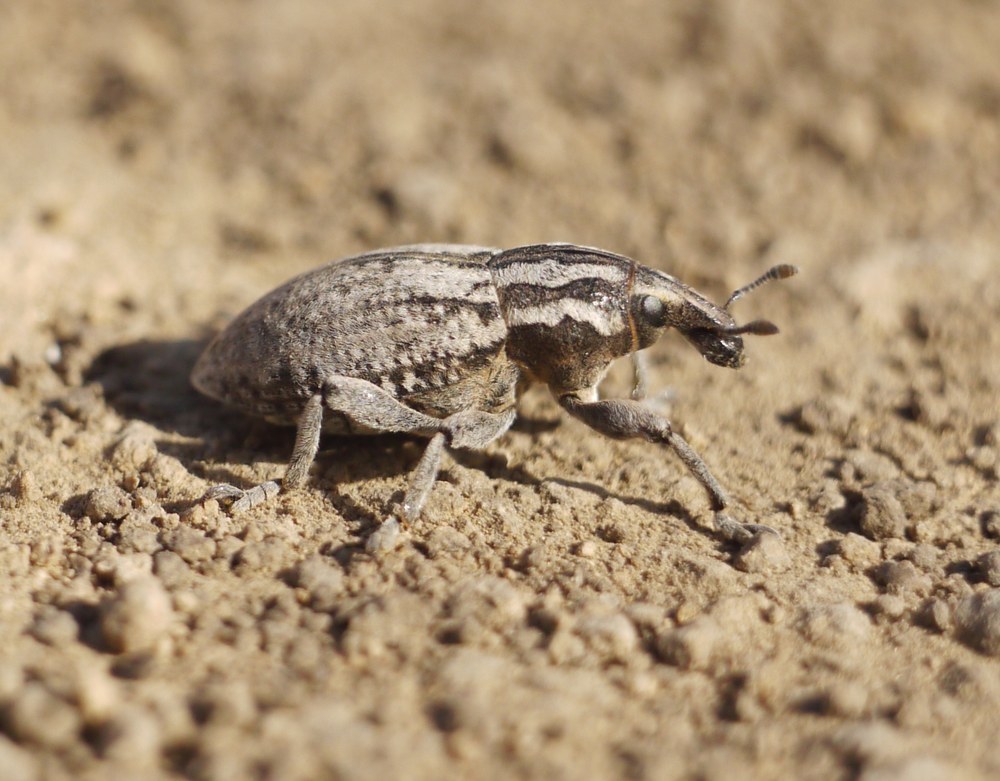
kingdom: Animalia
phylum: Arthropoda
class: Insecta
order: Coleoptera
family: Curculionidae
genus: Pseudocleonus
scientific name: Pseudocleonus cinereus
